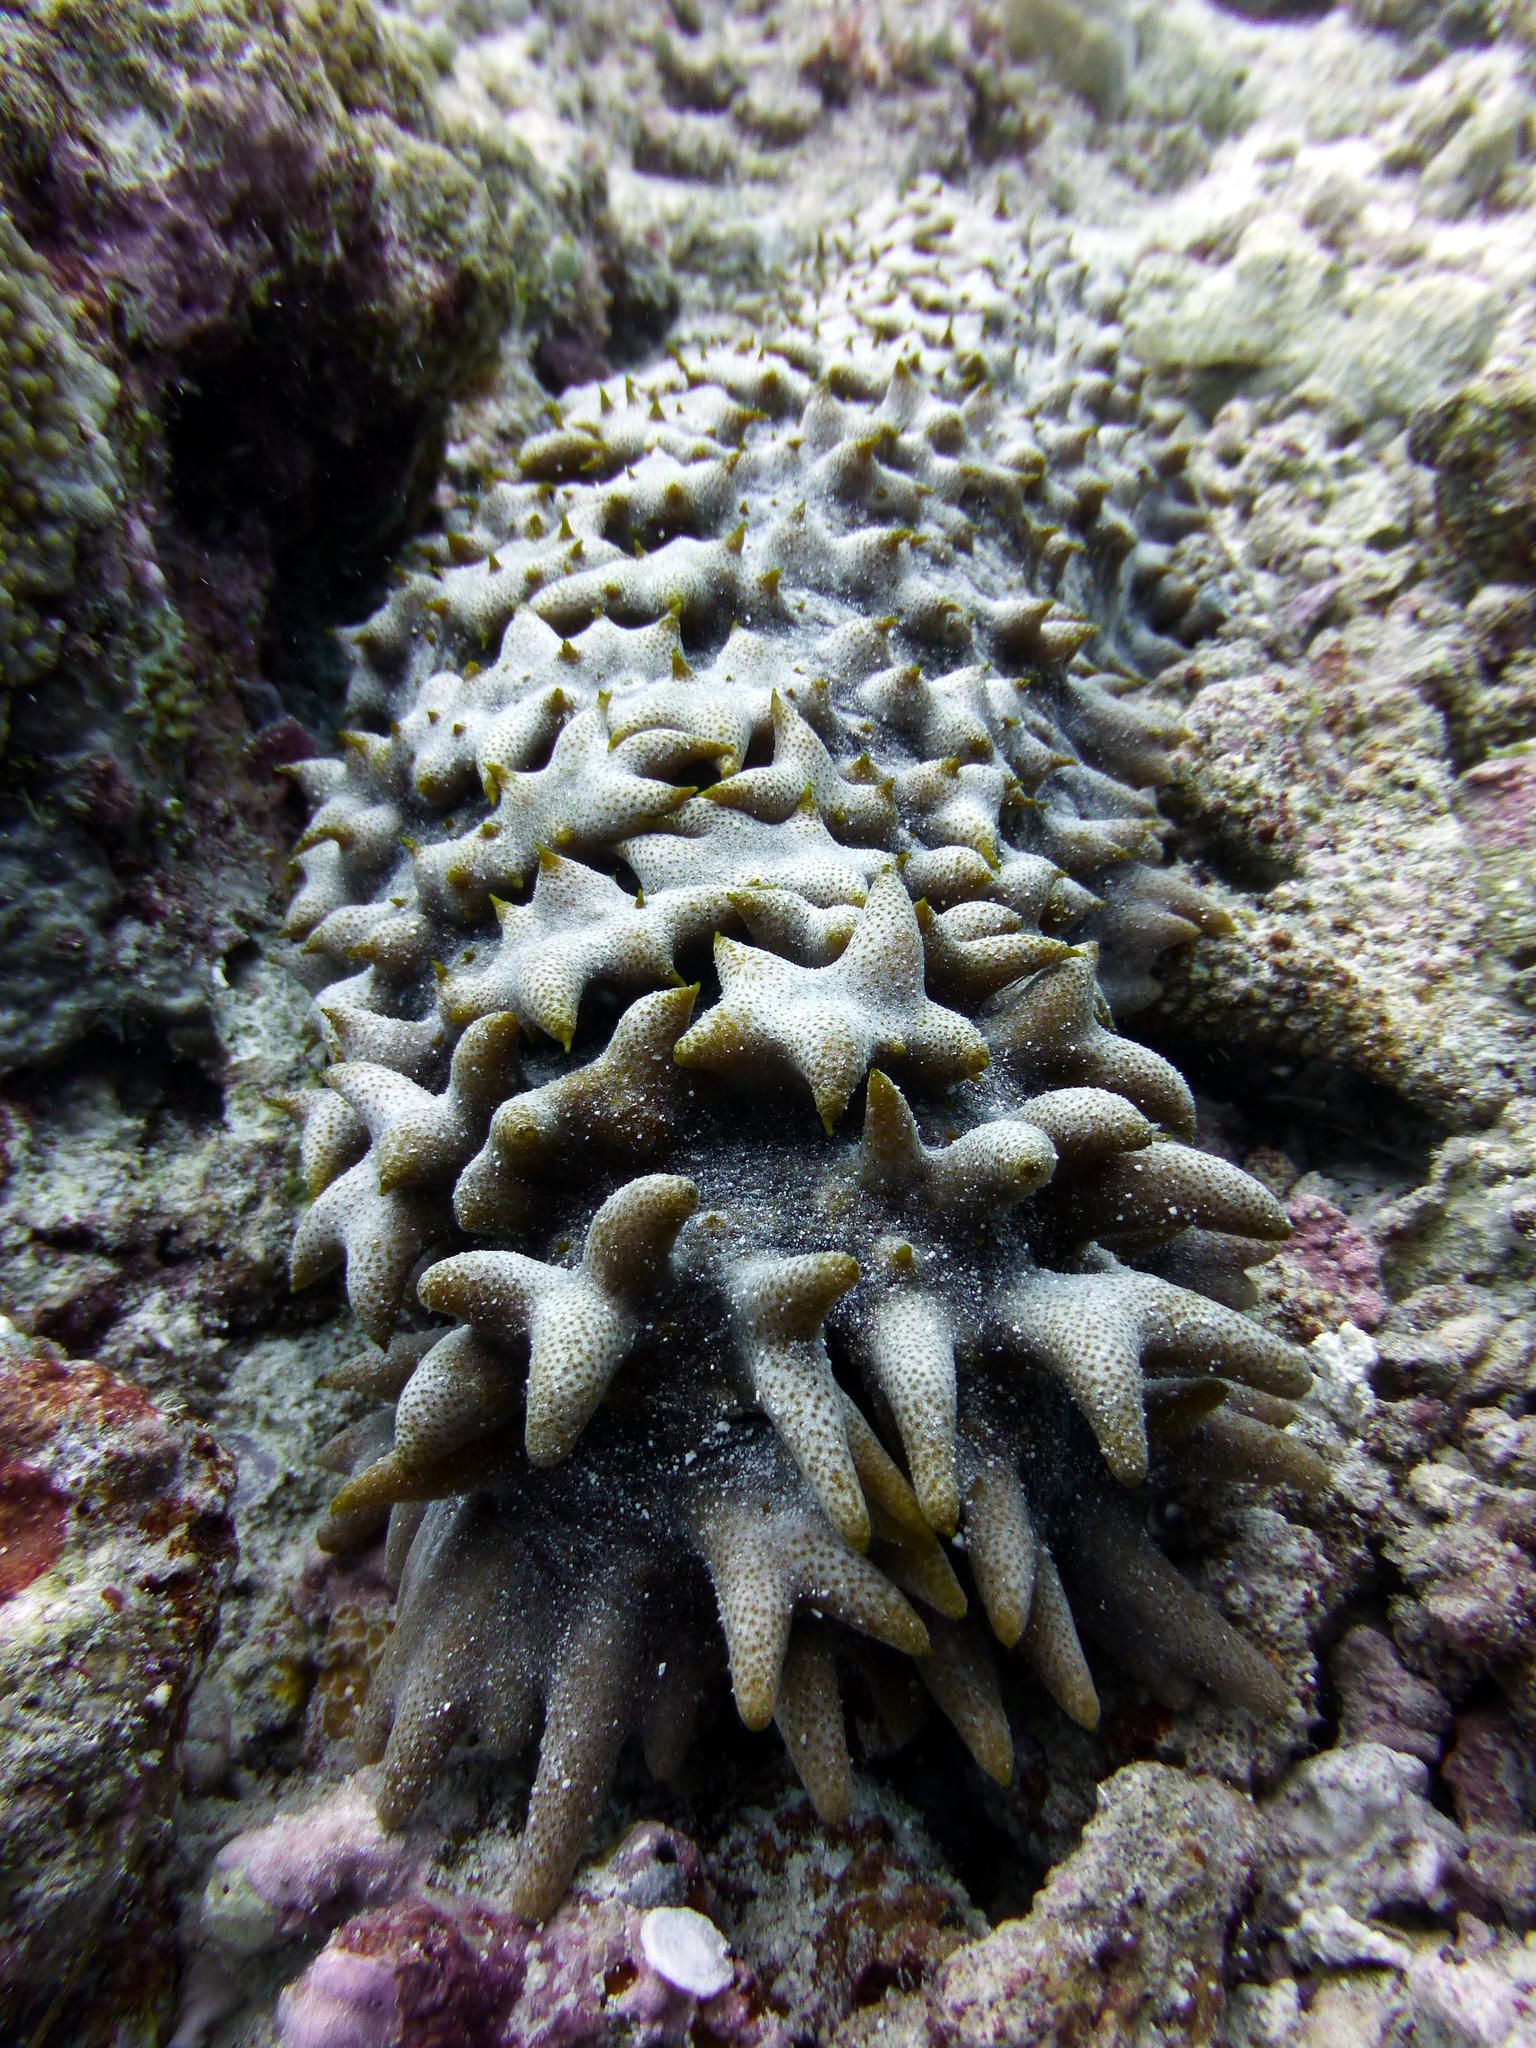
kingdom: Animalia
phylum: Echinodermata
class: Holothuroidea
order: Synallactida
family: Stichopodidae
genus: Thelenota
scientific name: Thelenota ananas
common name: Prickly redfish
